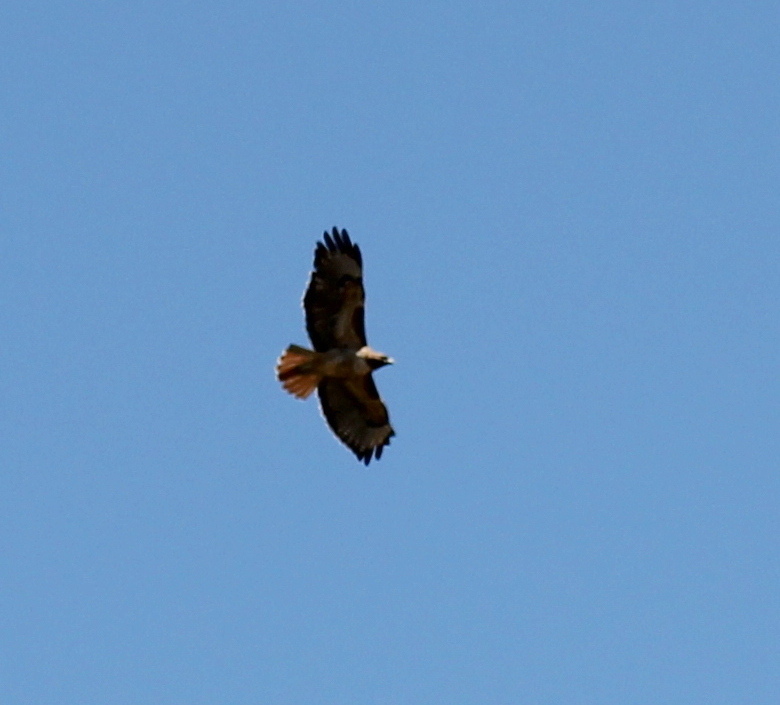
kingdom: Animalia
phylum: Chordata
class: Aves
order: Accipitriformes
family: Accipitridae
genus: Buteo
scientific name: Buteo jamaicensis
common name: Red-tailed hawk
